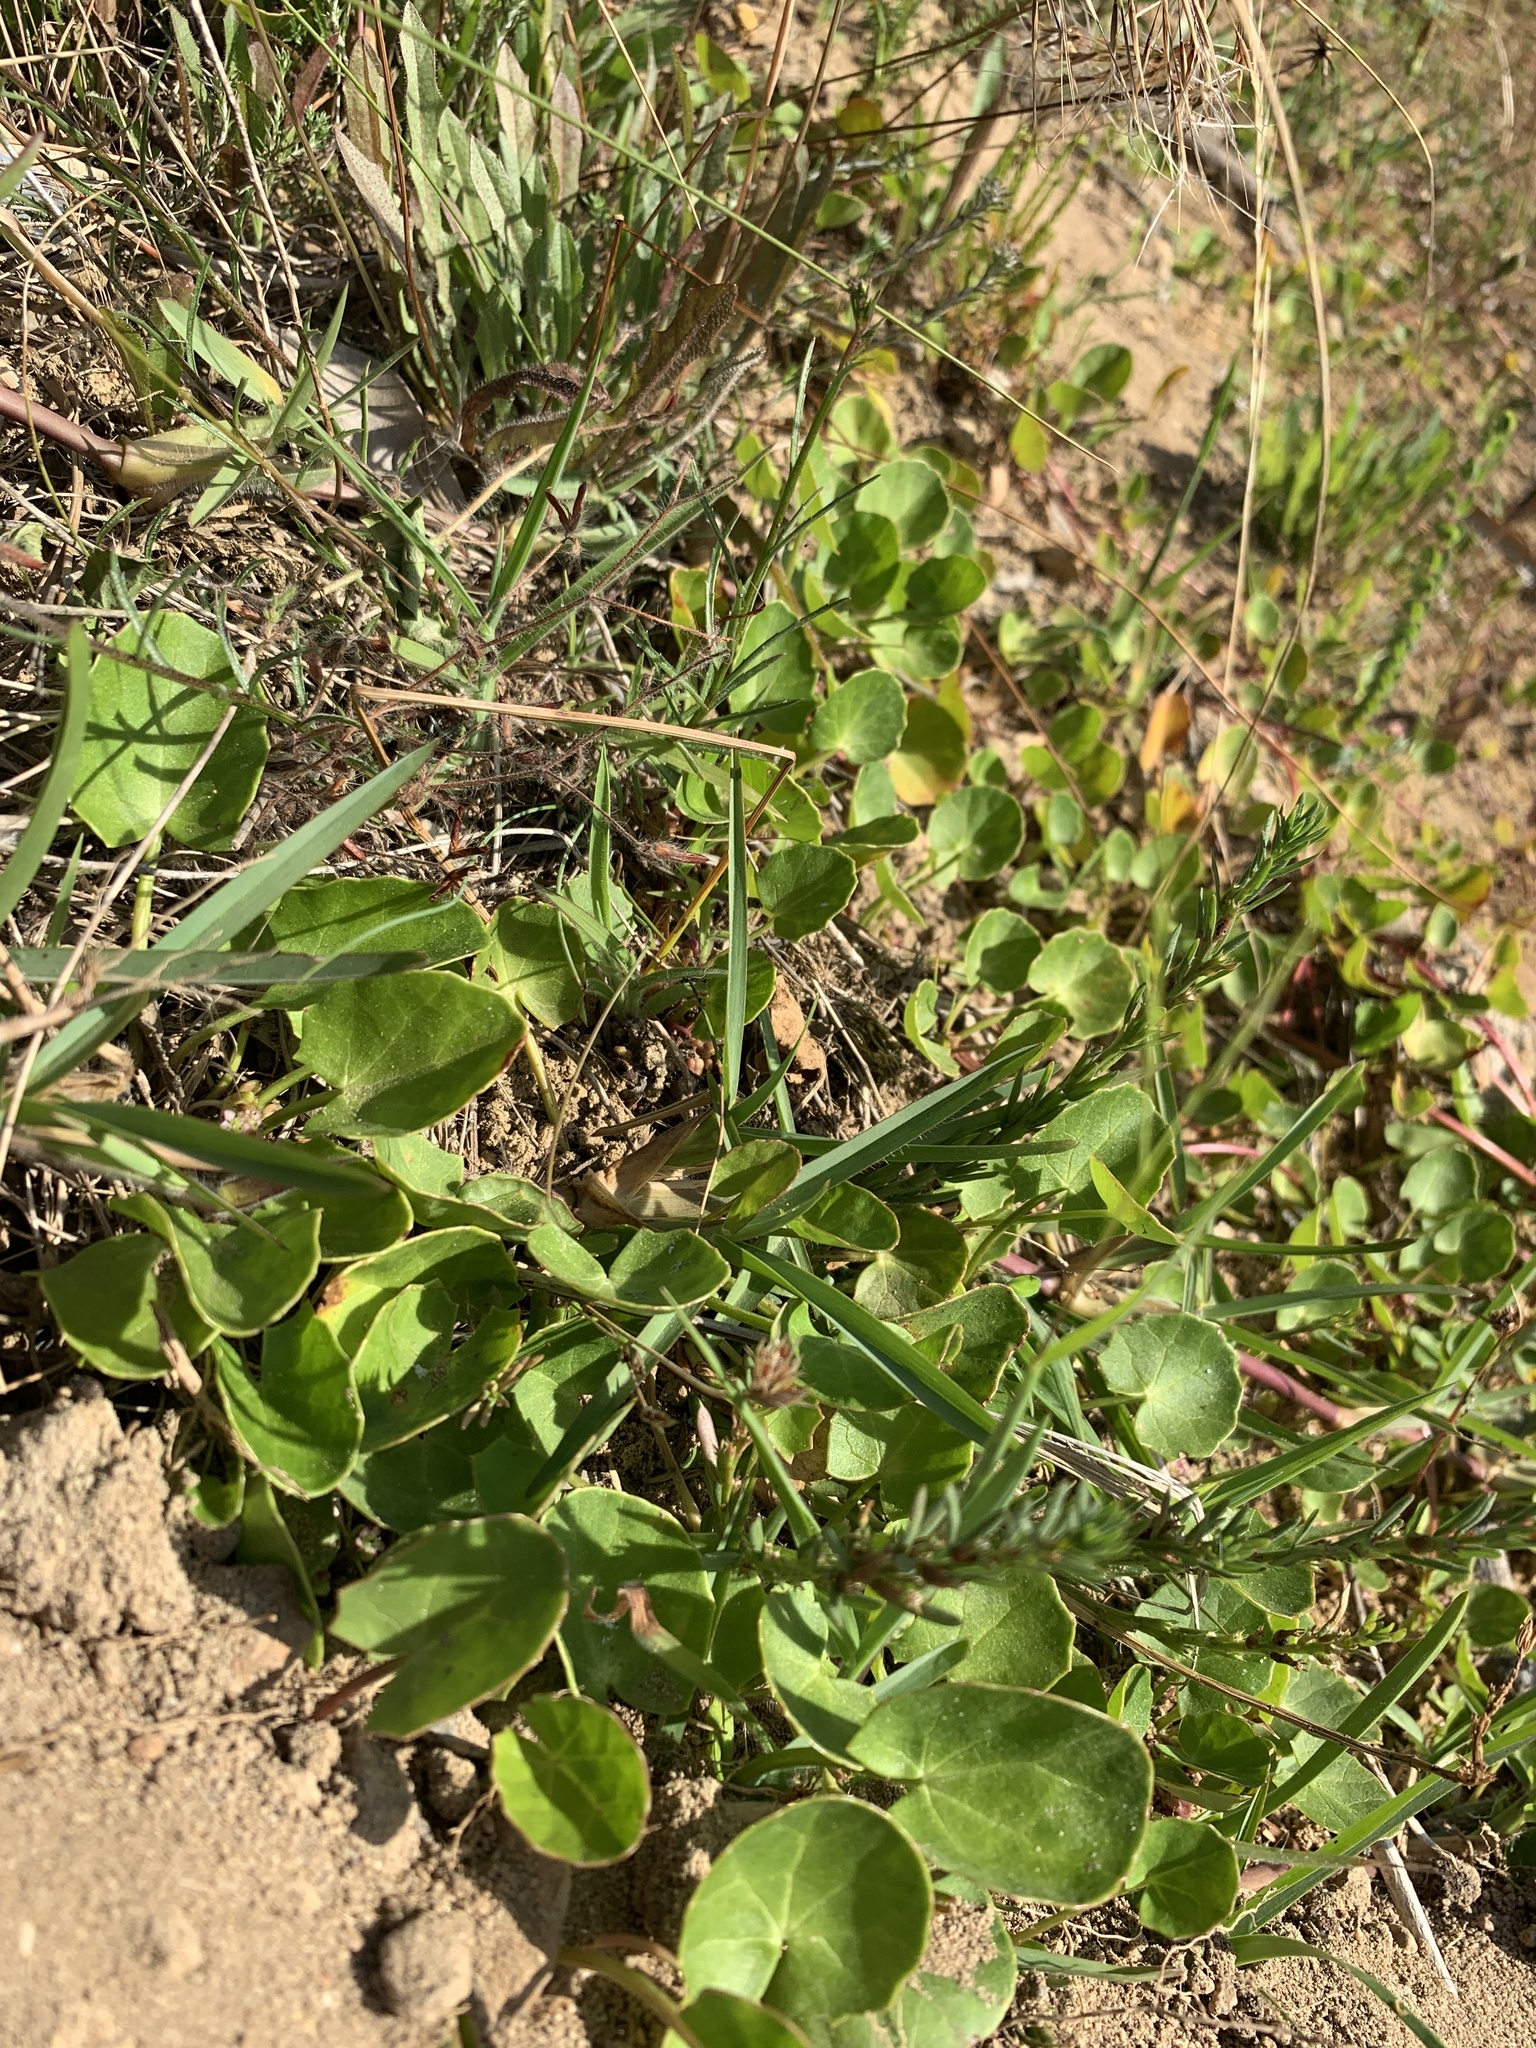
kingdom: Plantae
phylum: Tracheophyta
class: Magnoliopsida
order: Apiales
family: Apiaceae
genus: Centella
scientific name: Centella asiatica
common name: Spadeleaf
